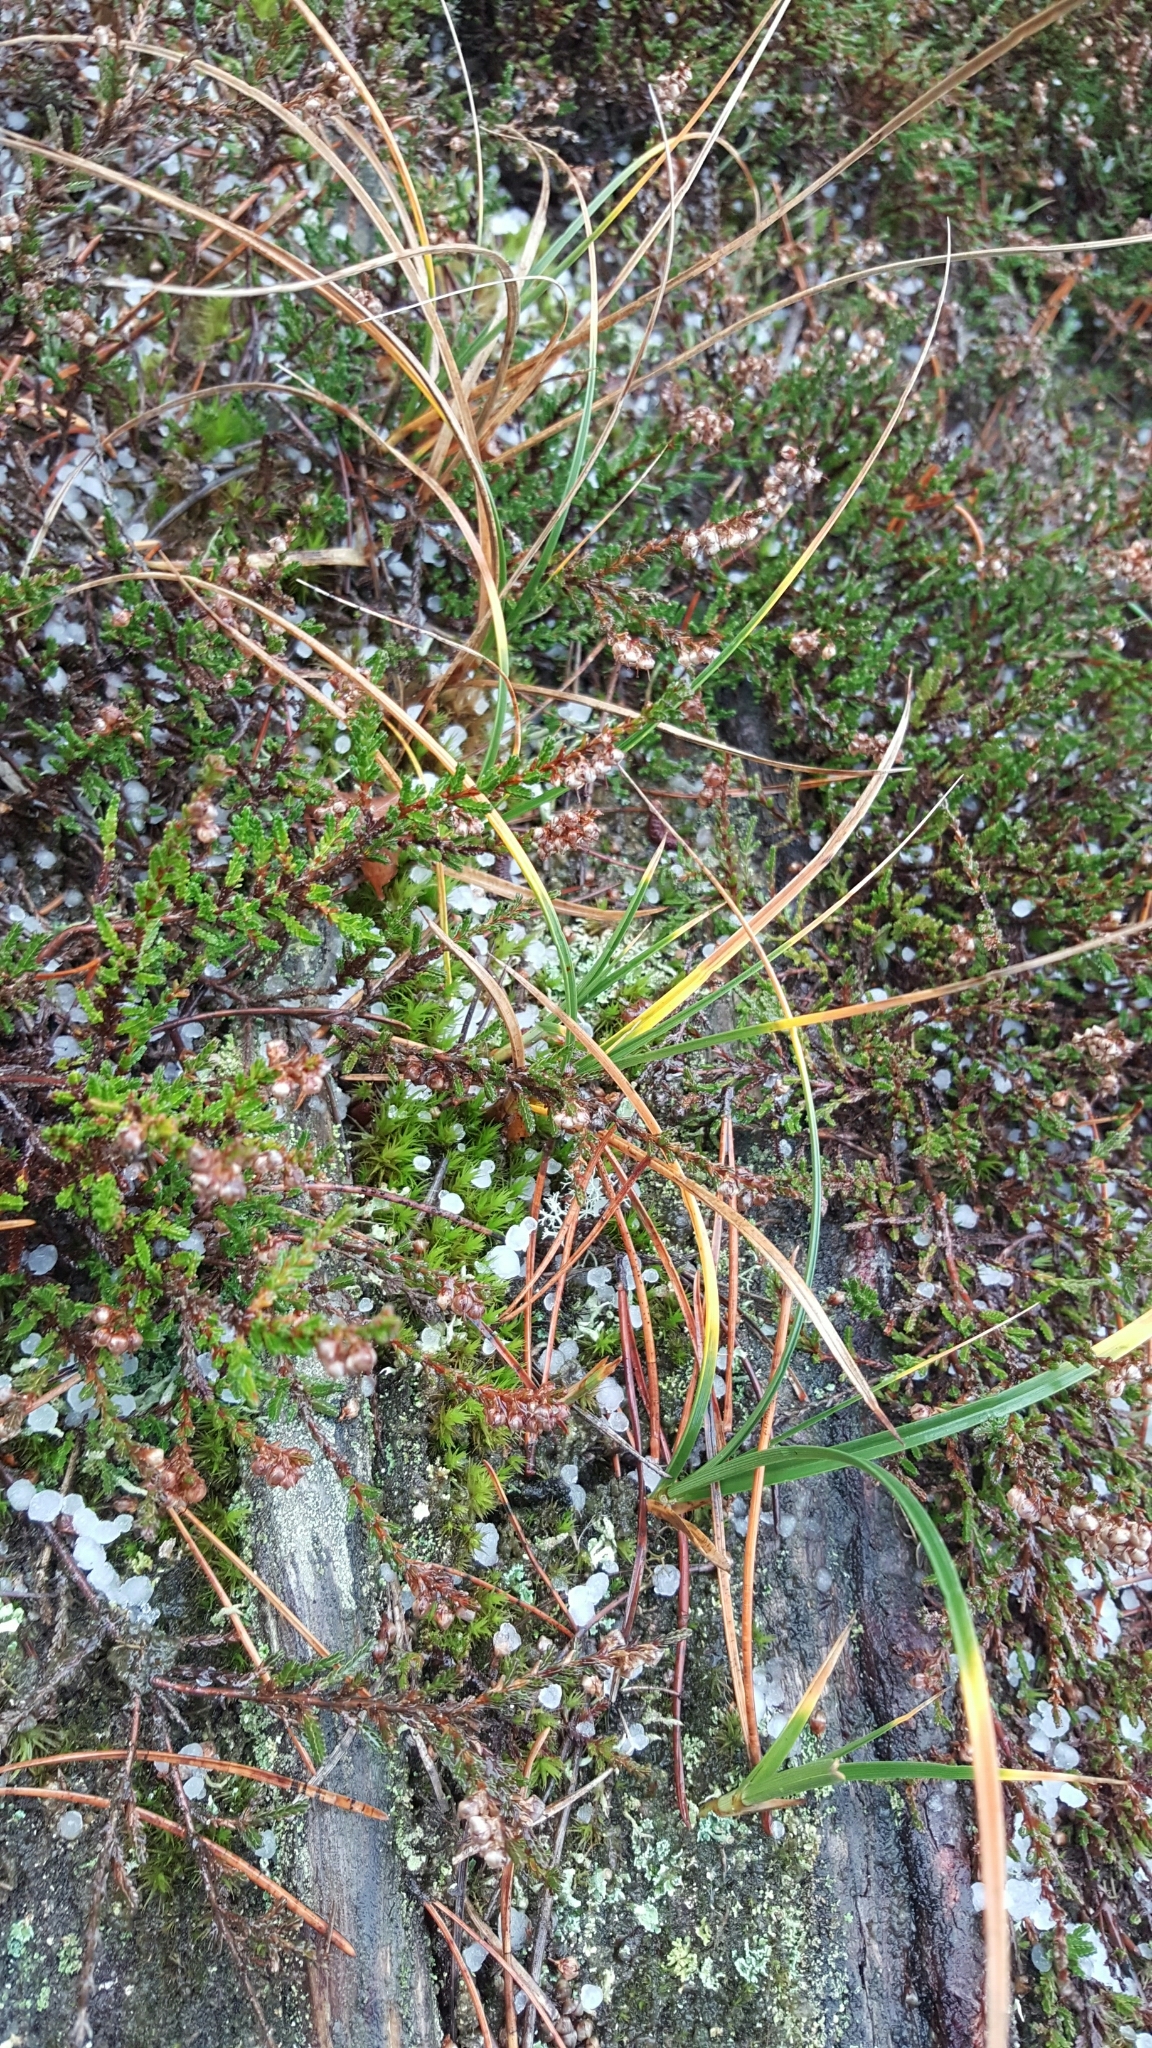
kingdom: Plantae
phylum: Tracheophyta
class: Liliopsida
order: Poales
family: Cyperaceae
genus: Carex
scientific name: Carex arenaria
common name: Sand sedge
